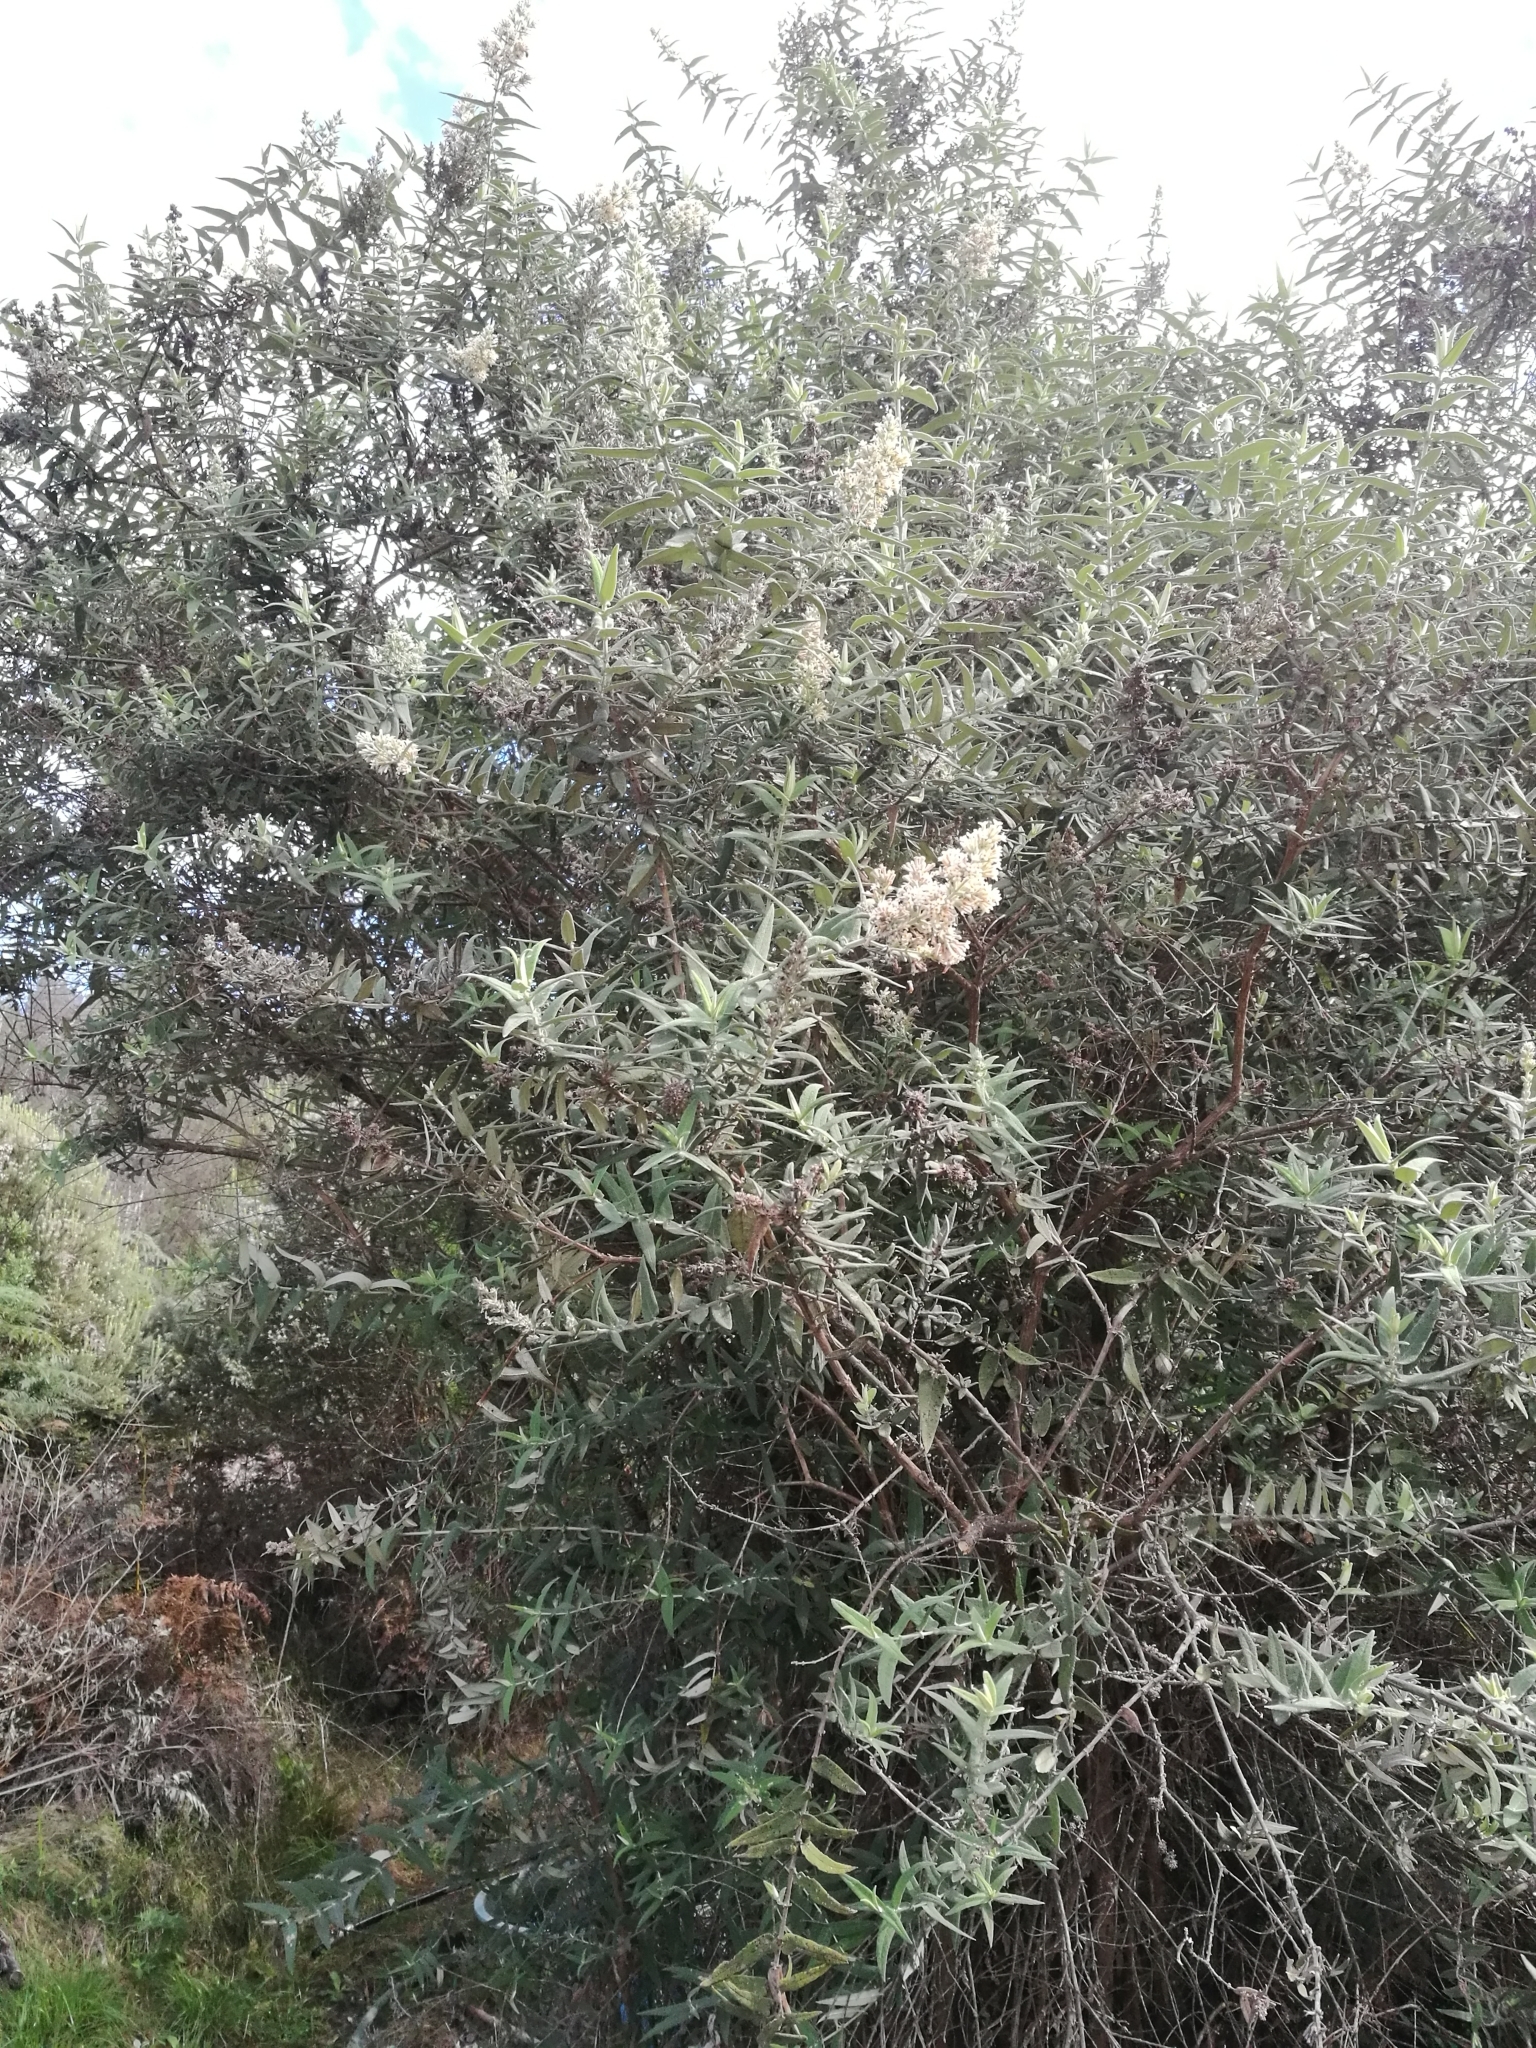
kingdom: Plantae
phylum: Tracheophyta
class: Magnoliopsida
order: Lamiales
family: Scrophulariaceae
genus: Buddleja
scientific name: Buddleja salviifolia
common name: Sagewood
